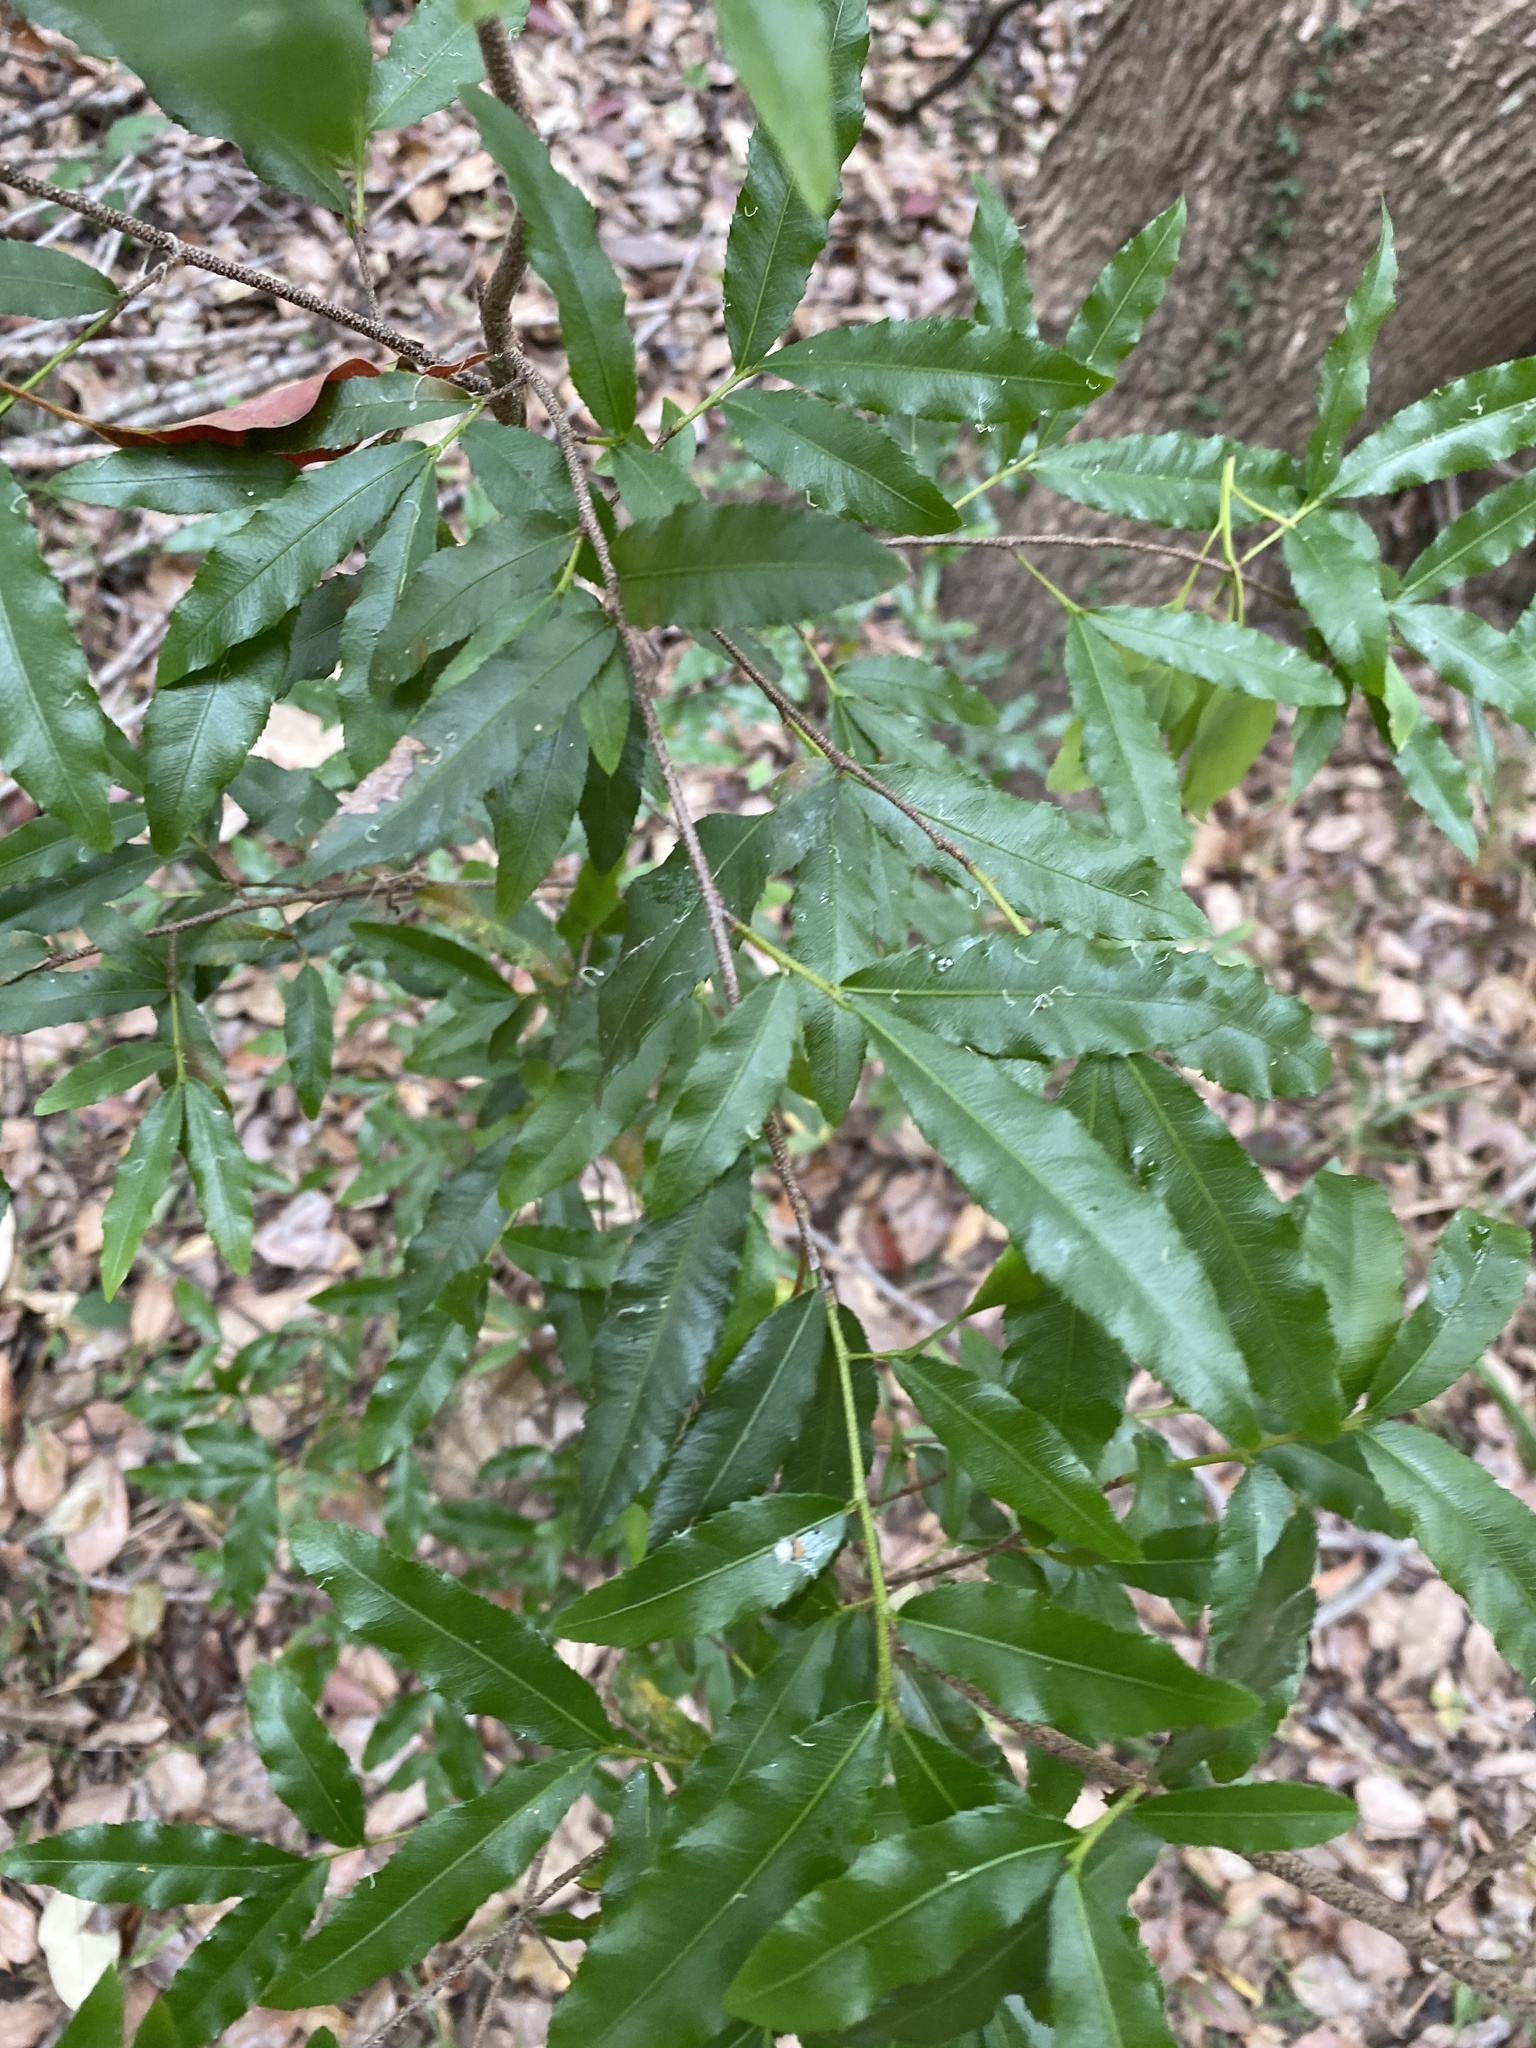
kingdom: Plantae
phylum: Tracheophyta
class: Magnoliopsida
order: Malpighiales
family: Ochnaceae
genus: Ochna
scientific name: Ochna serrulata
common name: Mickey mouse plant
